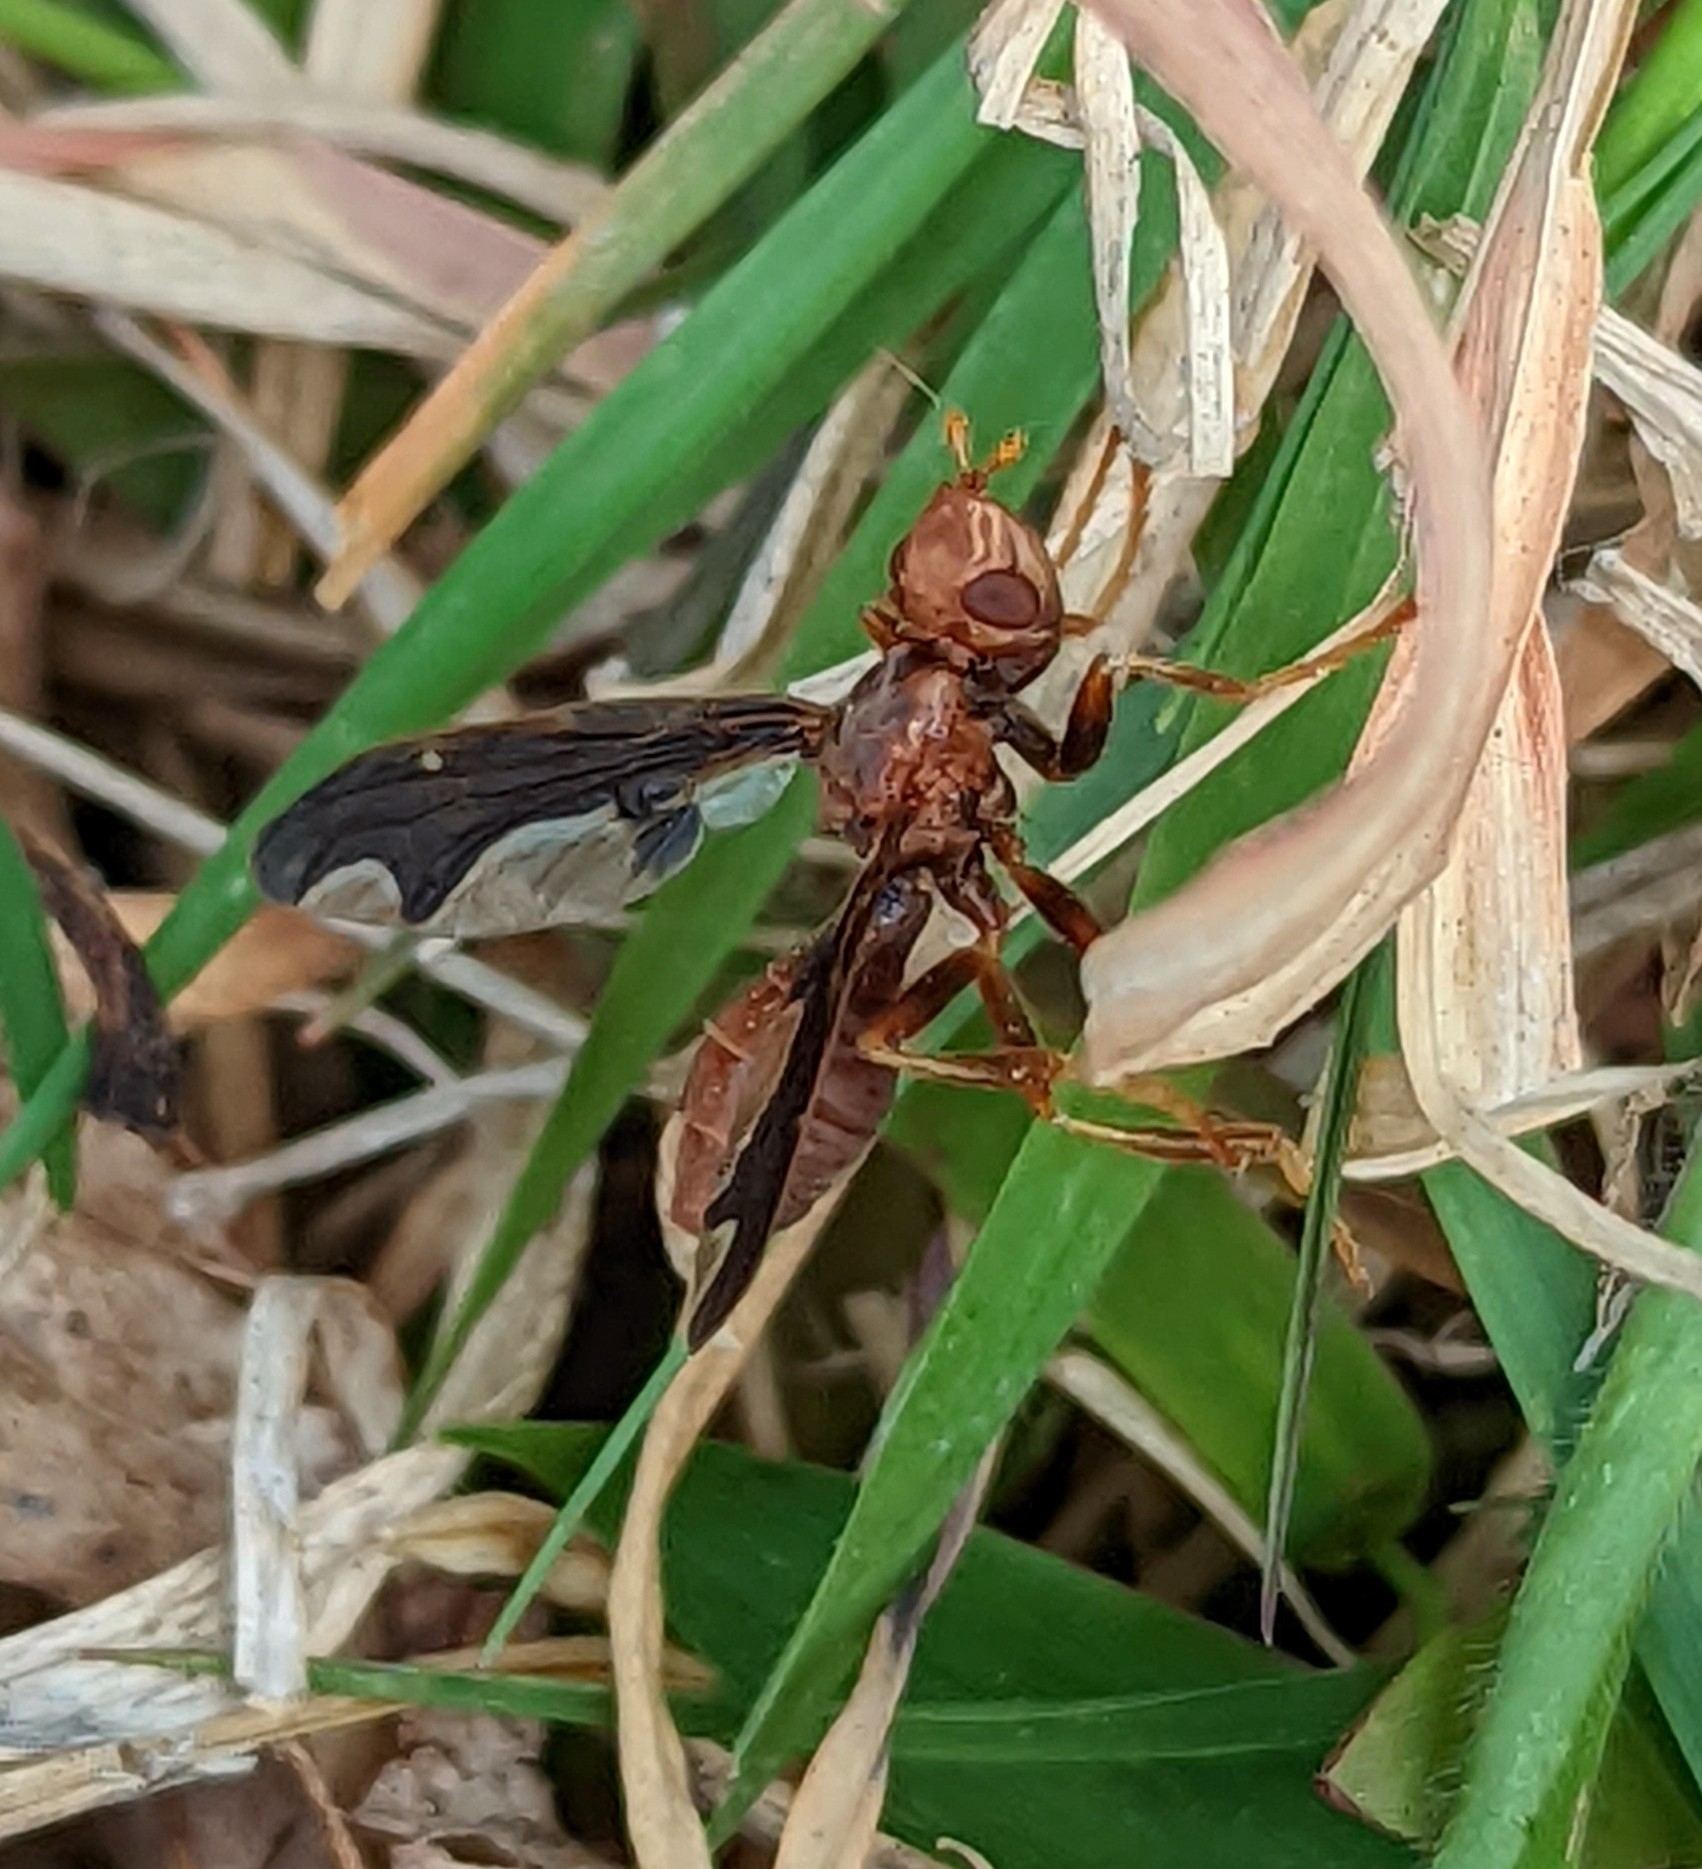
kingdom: Animalia
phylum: Arthropoda
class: Insecta
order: Diptera
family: Pyrgotidae
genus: Pyrgota
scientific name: Pyrgota undata
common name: Waved light fly
